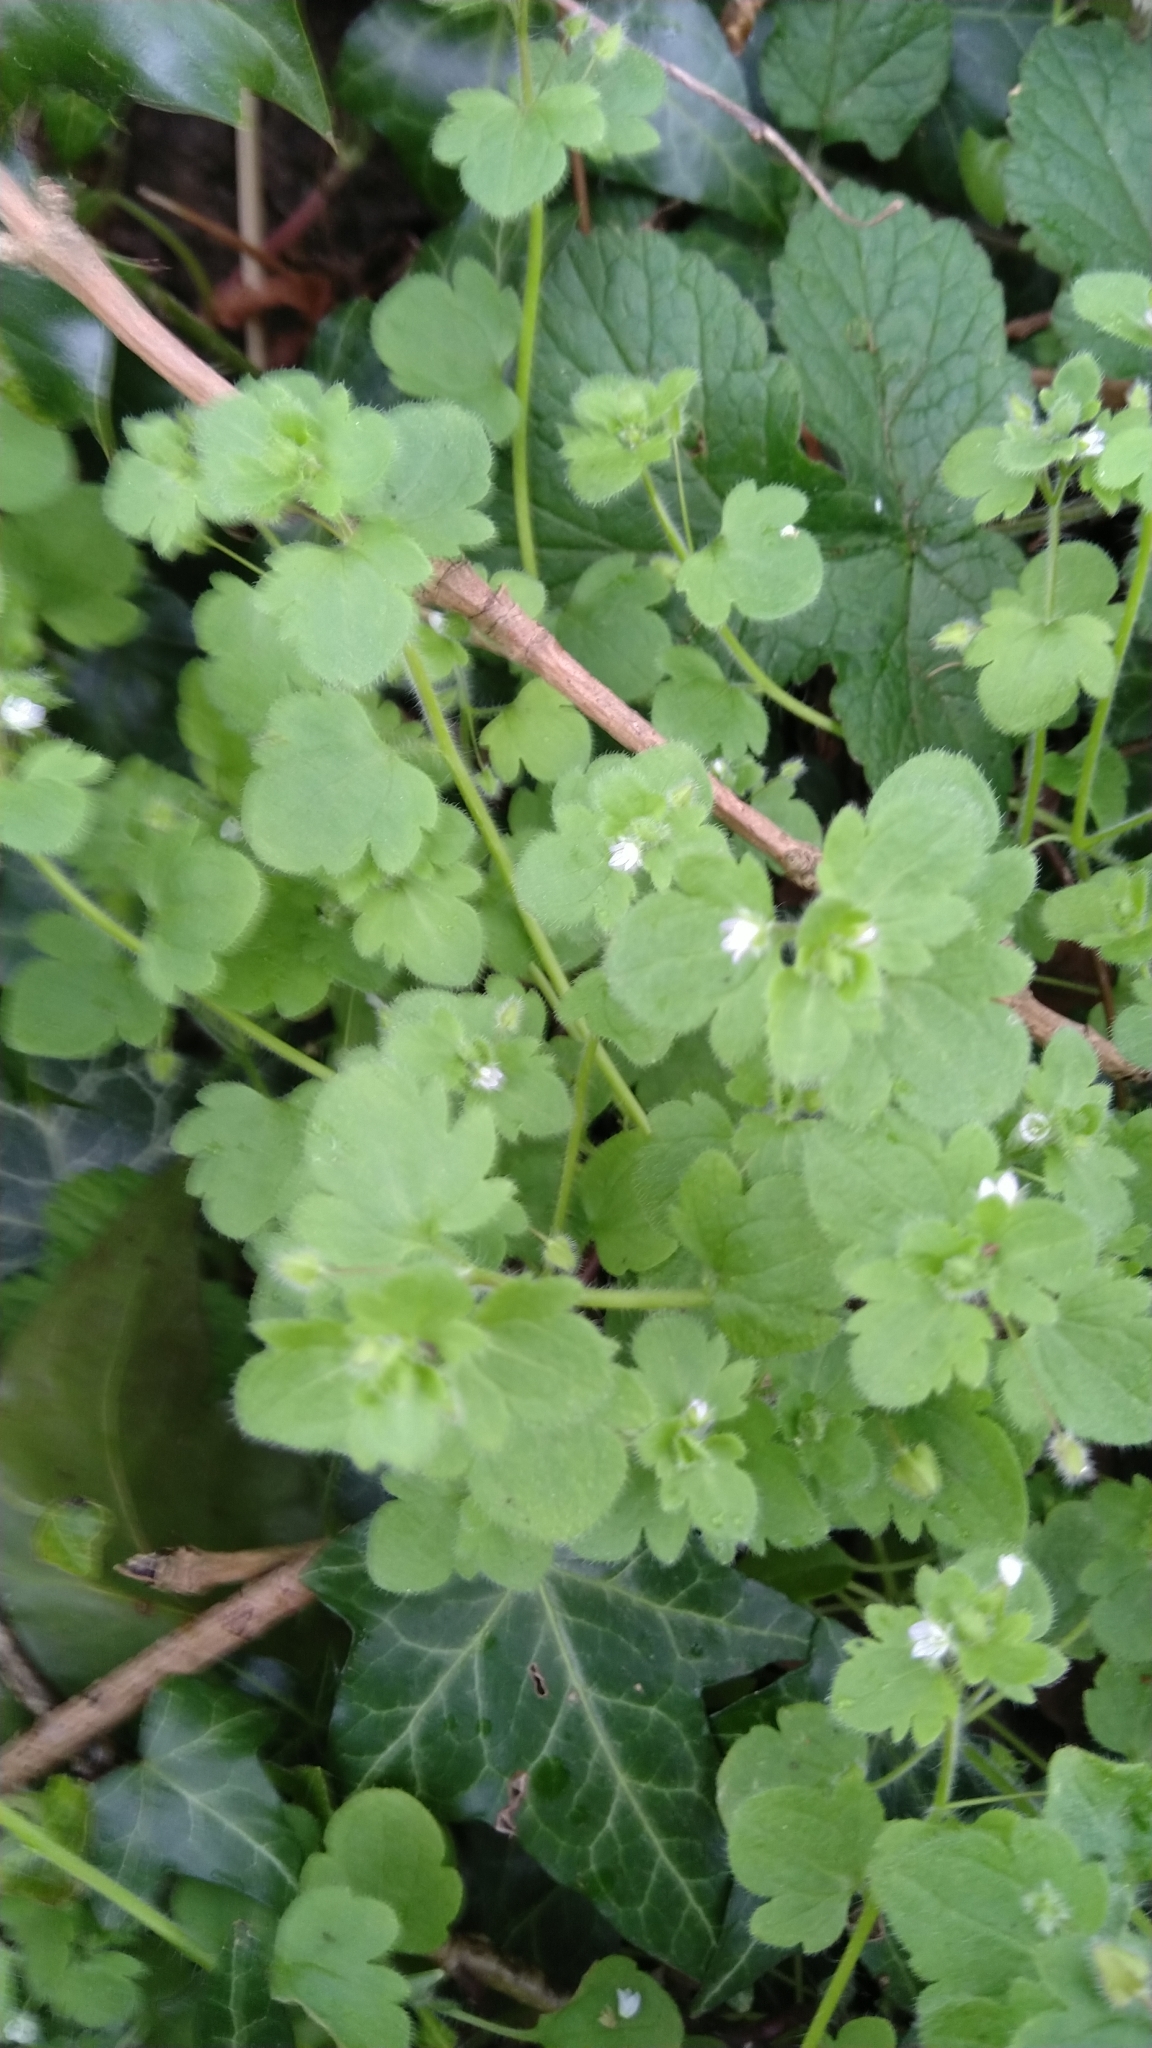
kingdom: Plantae
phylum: Tracheophyta
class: Magnoliopsida
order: Lamiales
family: Plantaginaceae
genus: Veronica
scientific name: Veronica hederifolia
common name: Ivy-leaved speedwell
